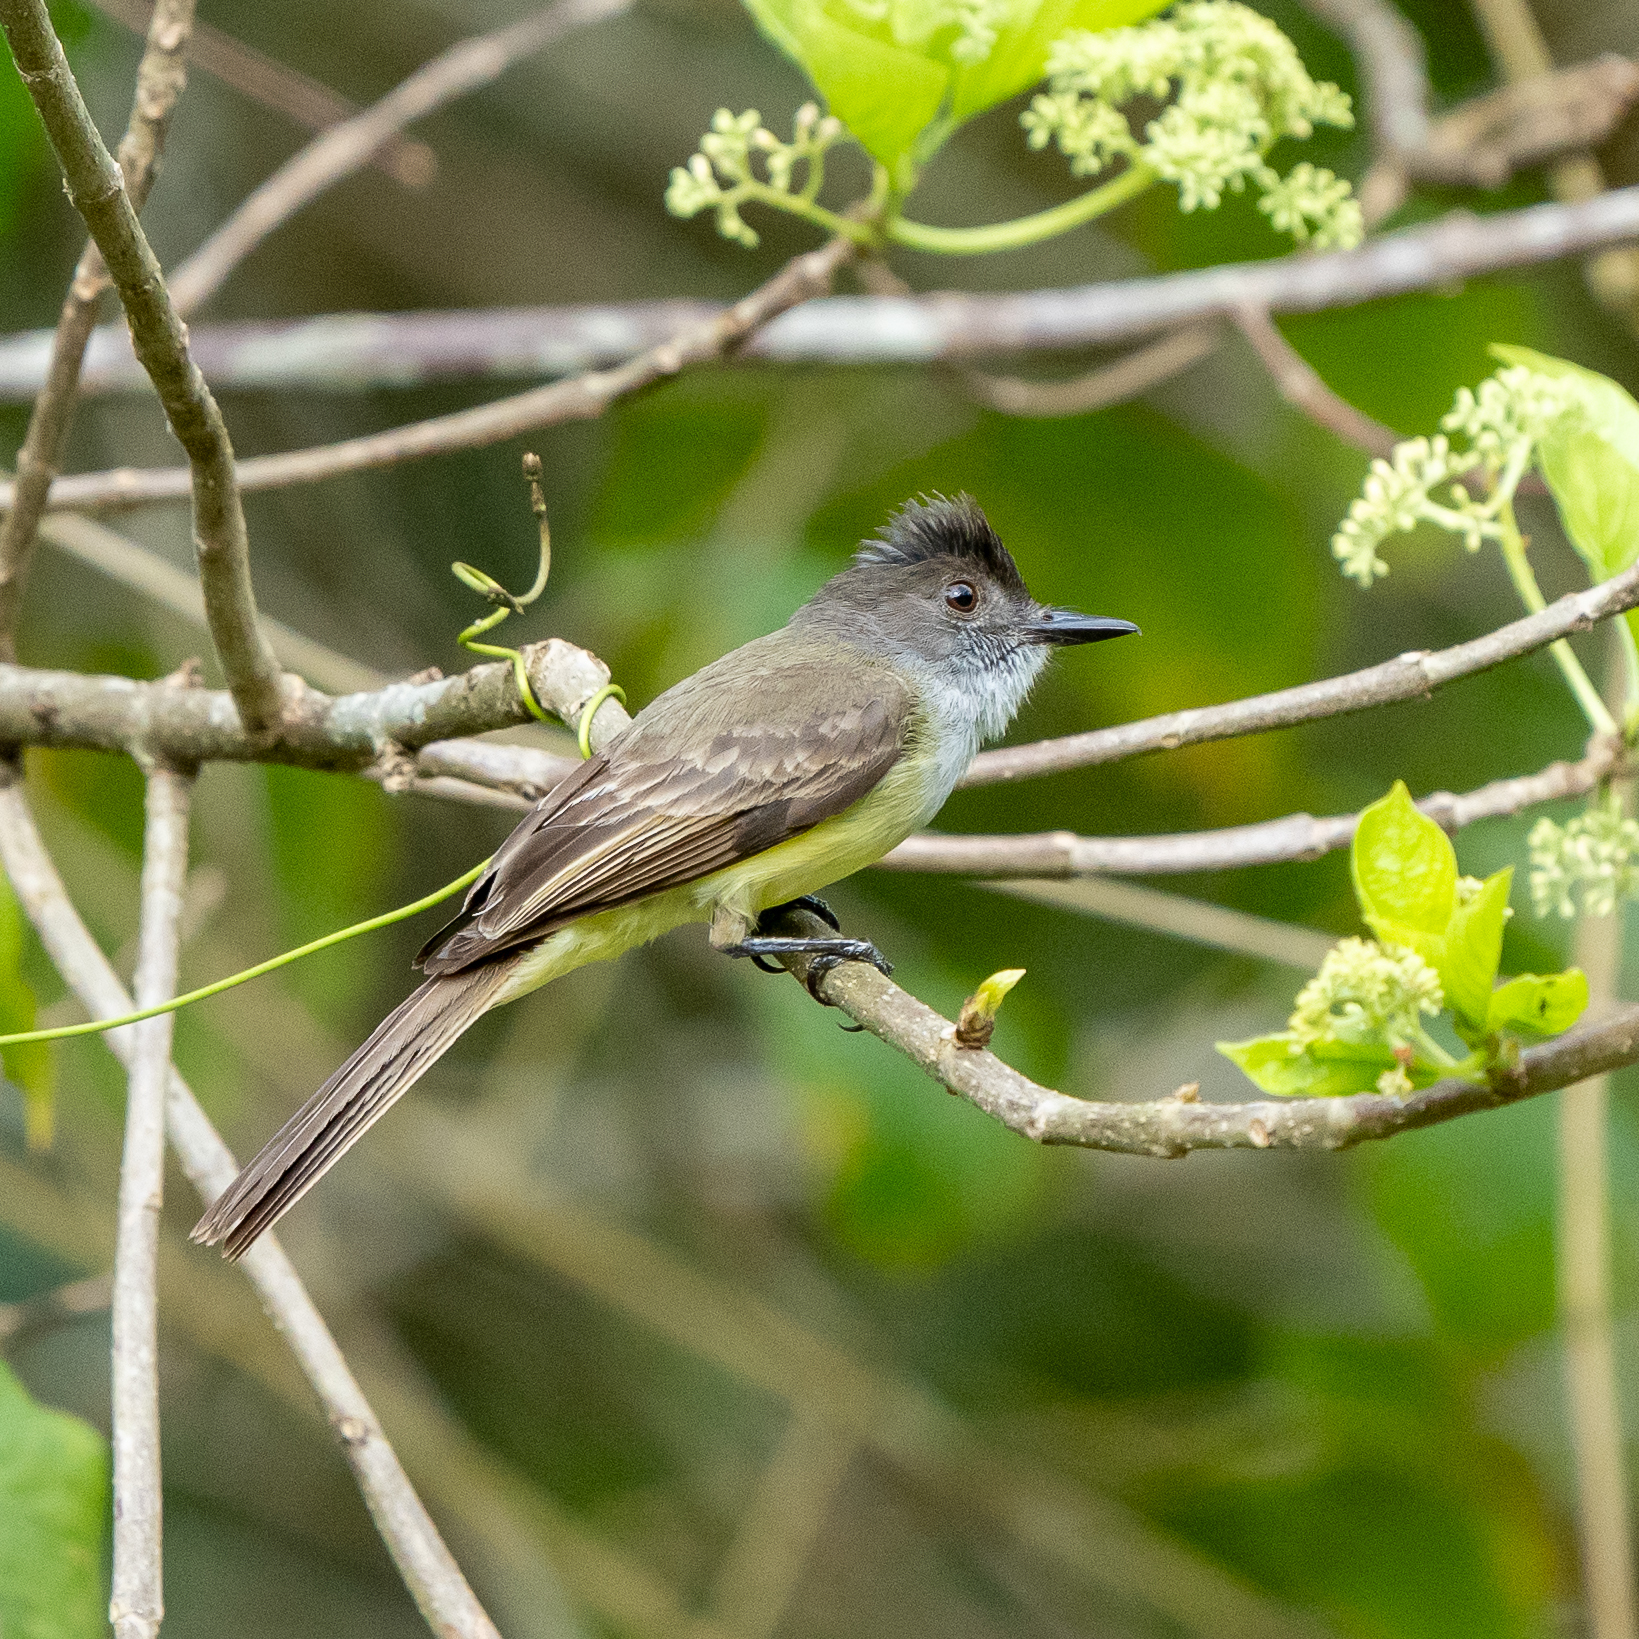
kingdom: Animalia
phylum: Chordata
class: Aves
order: Passeriformes
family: Tyrannidae
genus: Myiarchus
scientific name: Myiarchus tuberculifer
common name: Dusky-capped flycatcher
